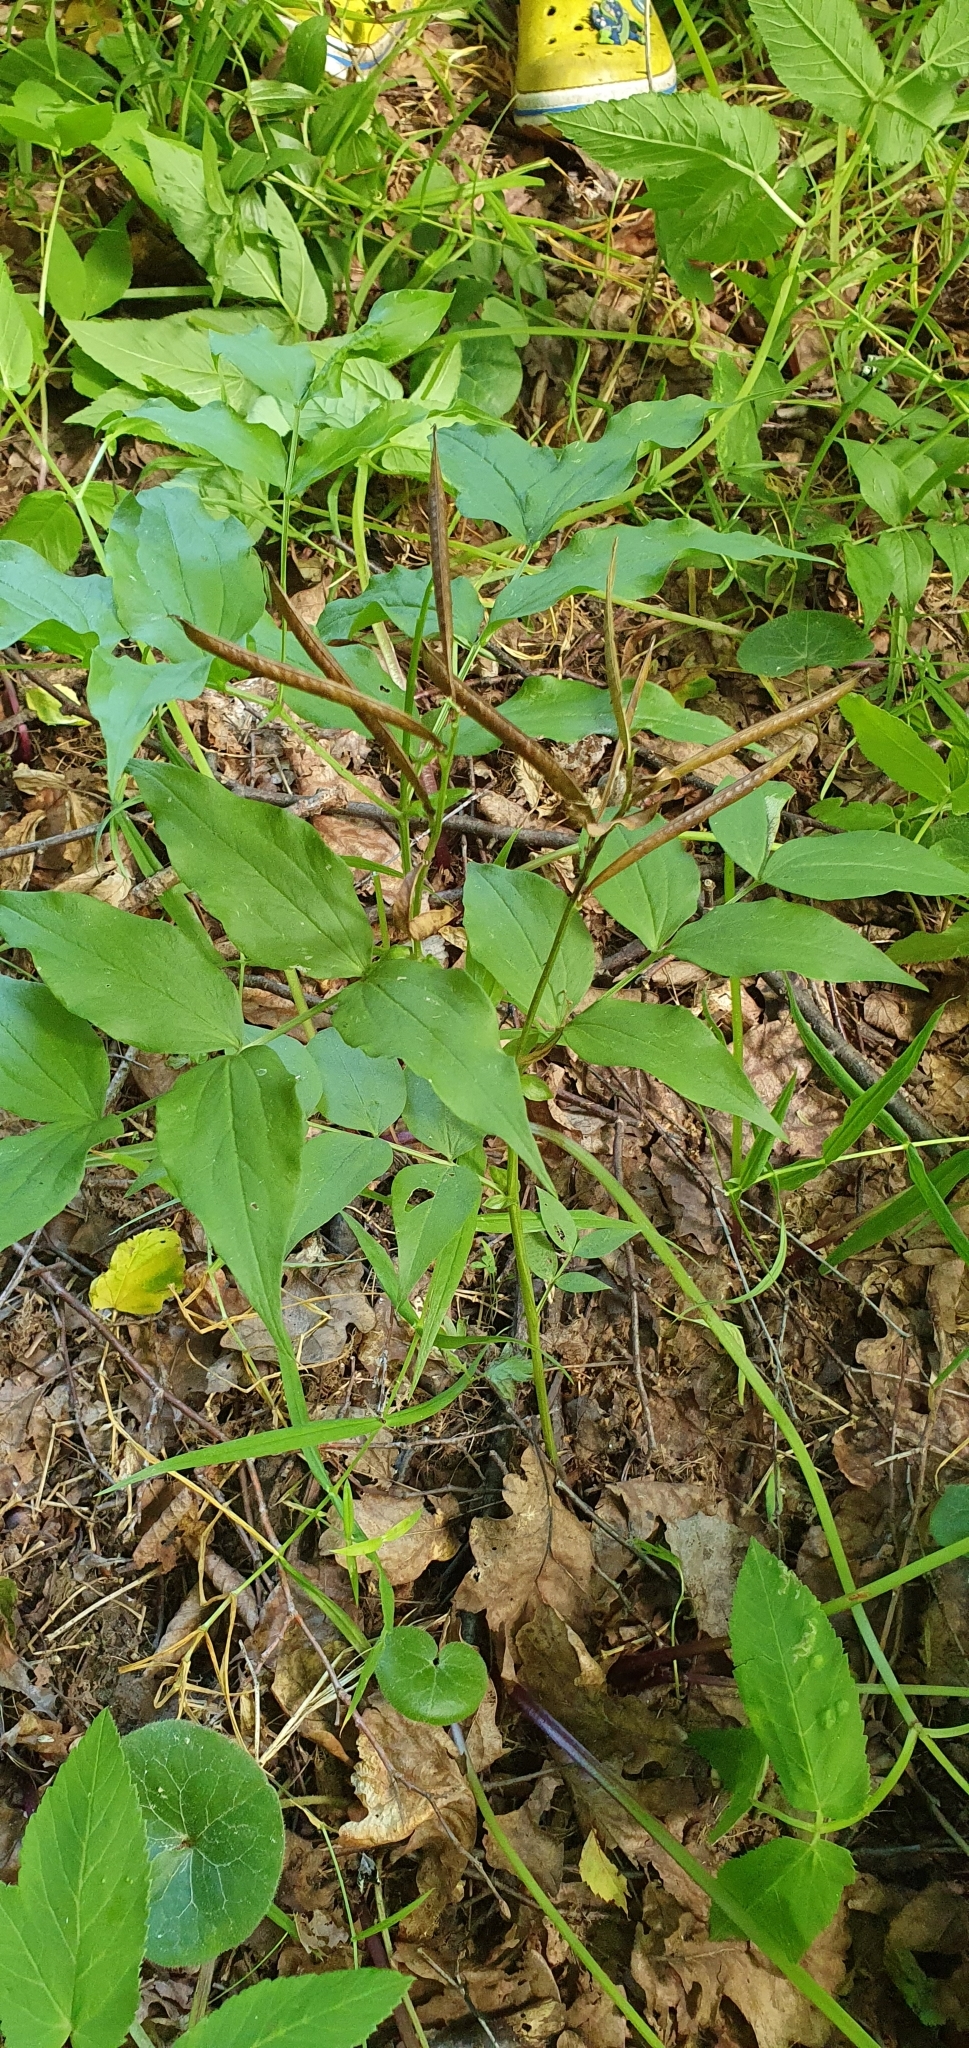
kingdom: Plantae
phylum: Tracheophyta
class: Magnoliopsida
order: Fabales
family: Fabaceae
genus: Lathyrus
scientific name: Lathyrus vernus
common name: Spring pea
